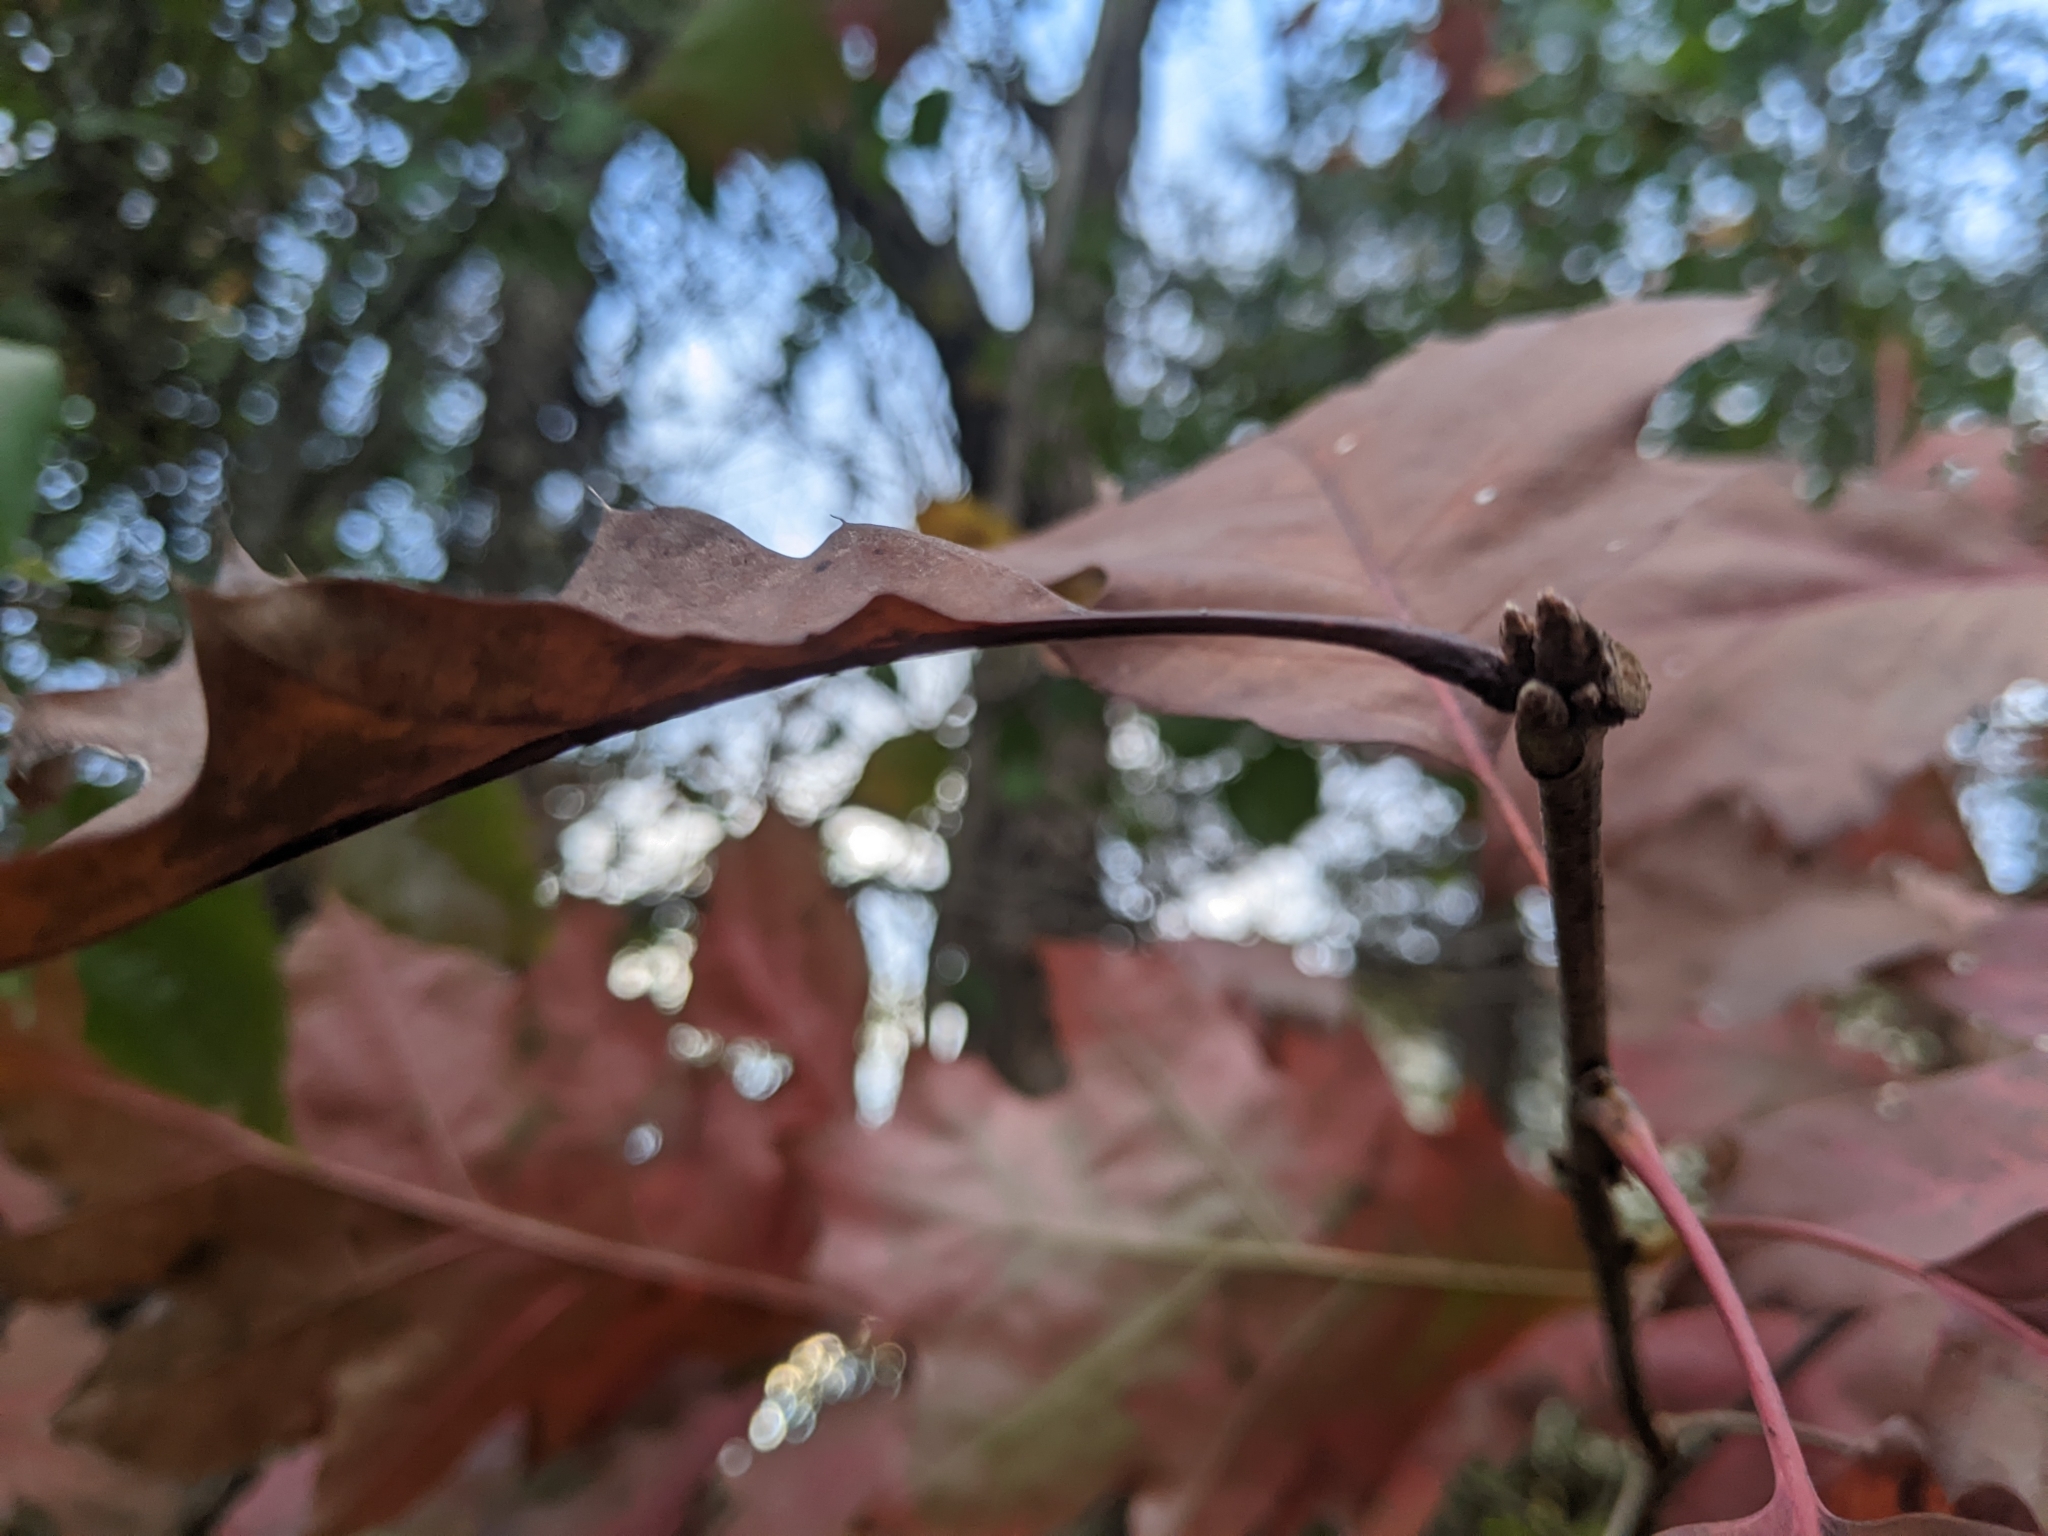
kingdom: Plantae
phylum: Tracheophyta
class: Magnoliopsida
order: Fagales
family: Fagaceae
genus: Quercus
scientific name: Quercus rubra
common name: Red oak
